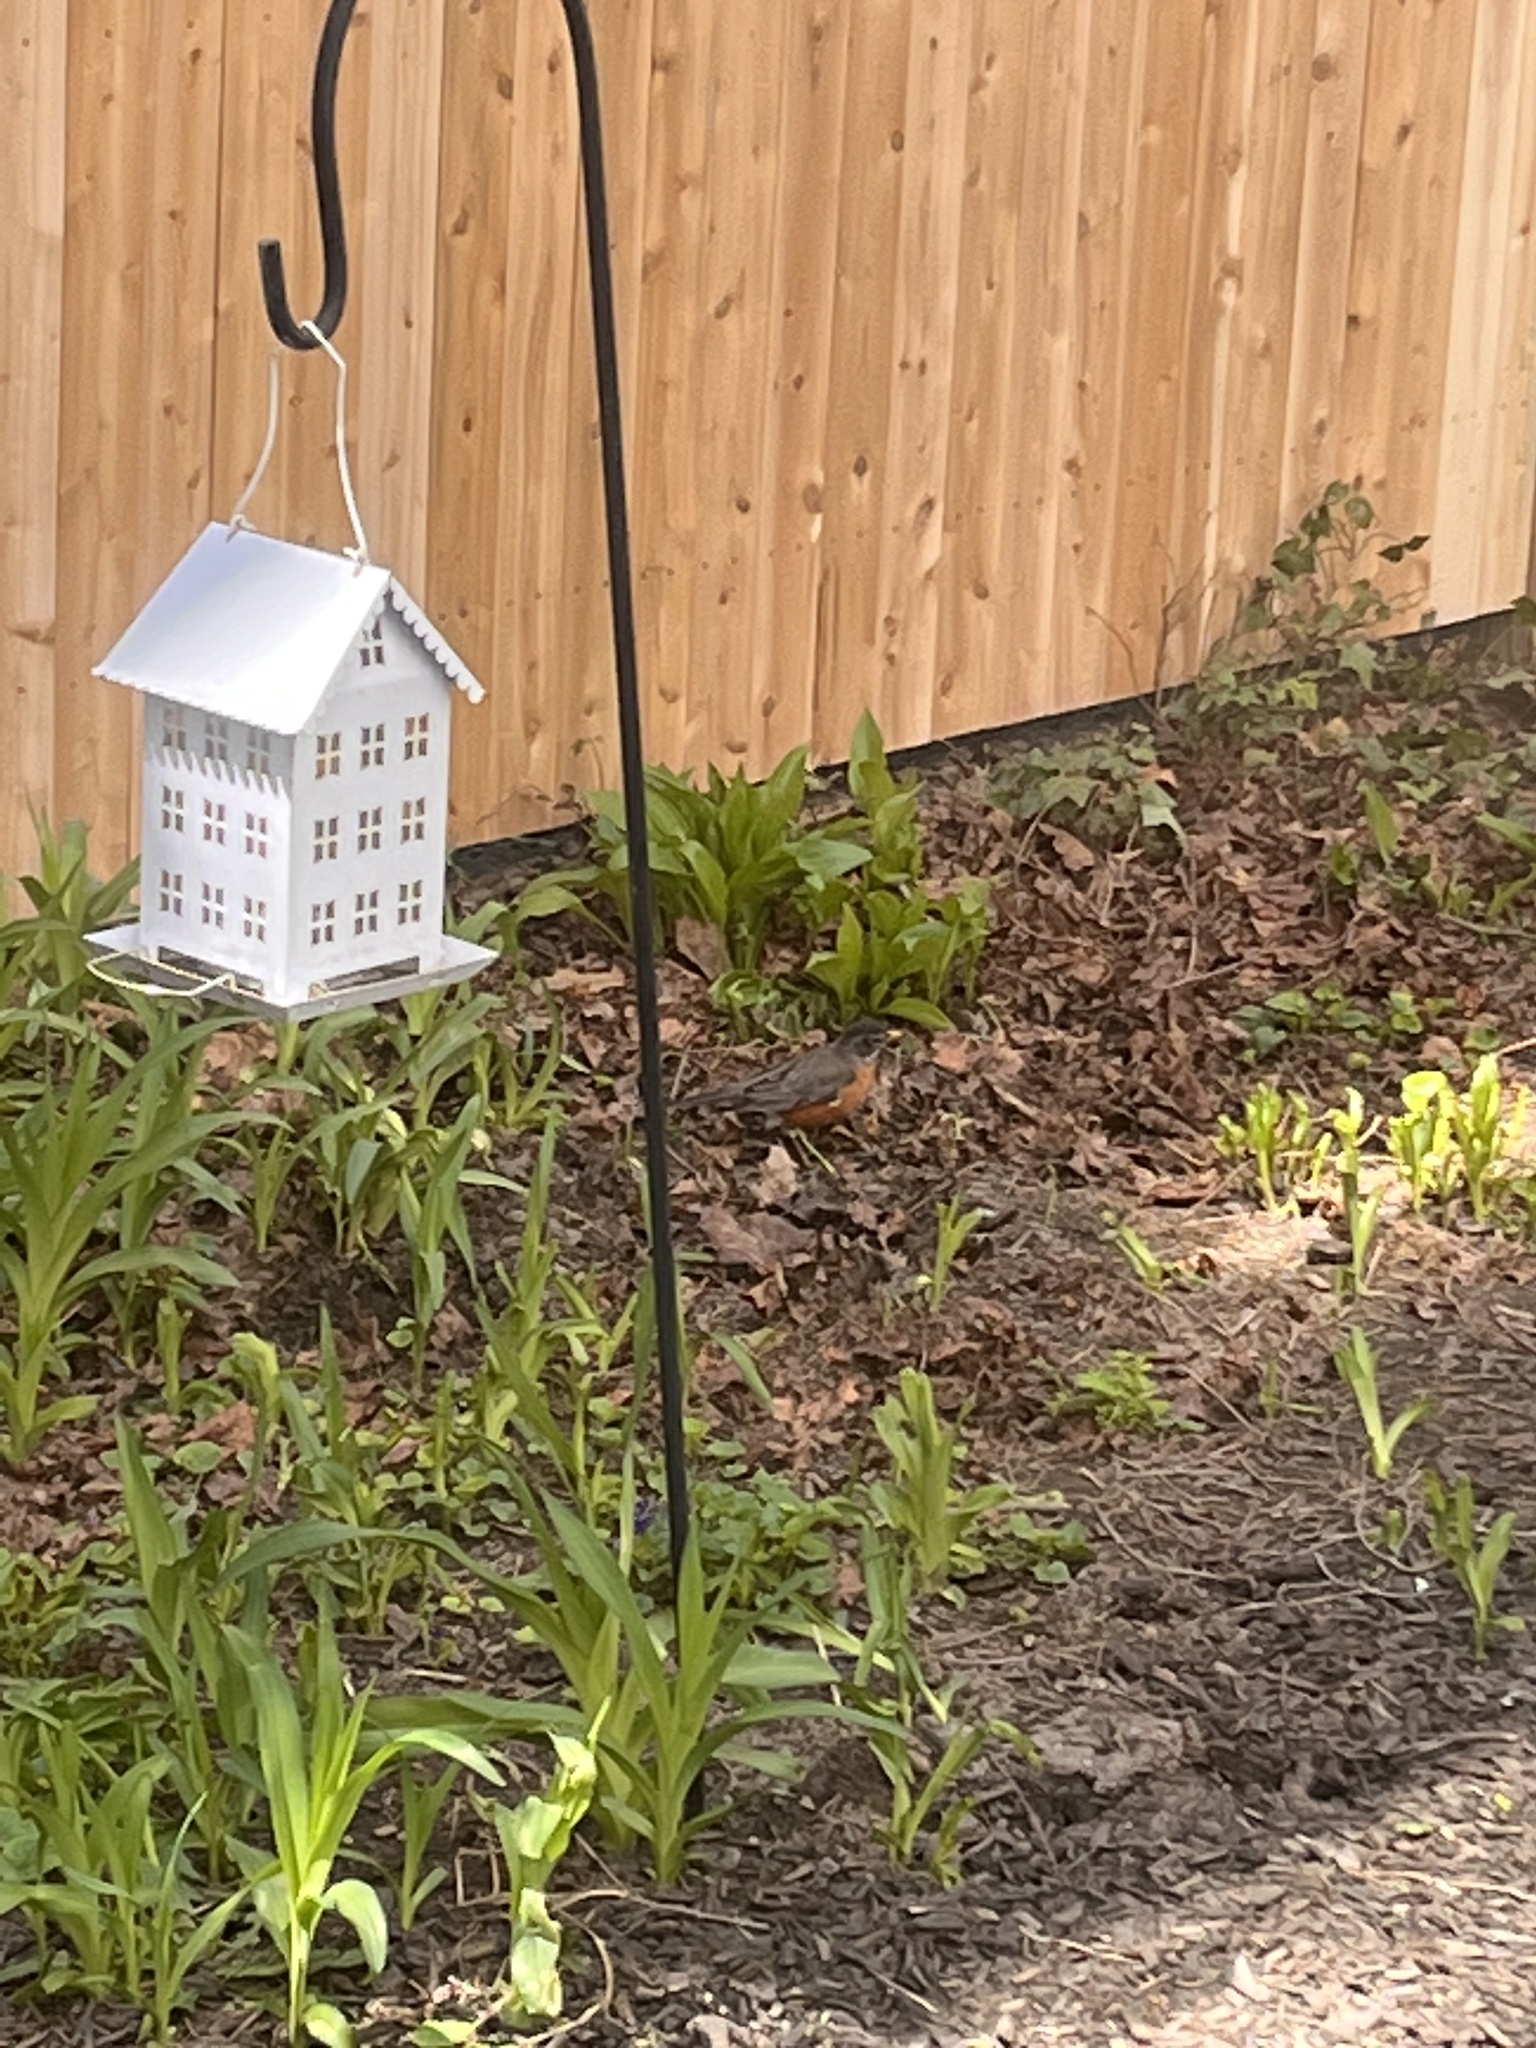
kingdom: Animalia
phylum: Chordata
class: Aves
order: Passeriformes
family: Turdidae
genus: Turdus
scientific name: Turdus migratorius
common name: American robin
